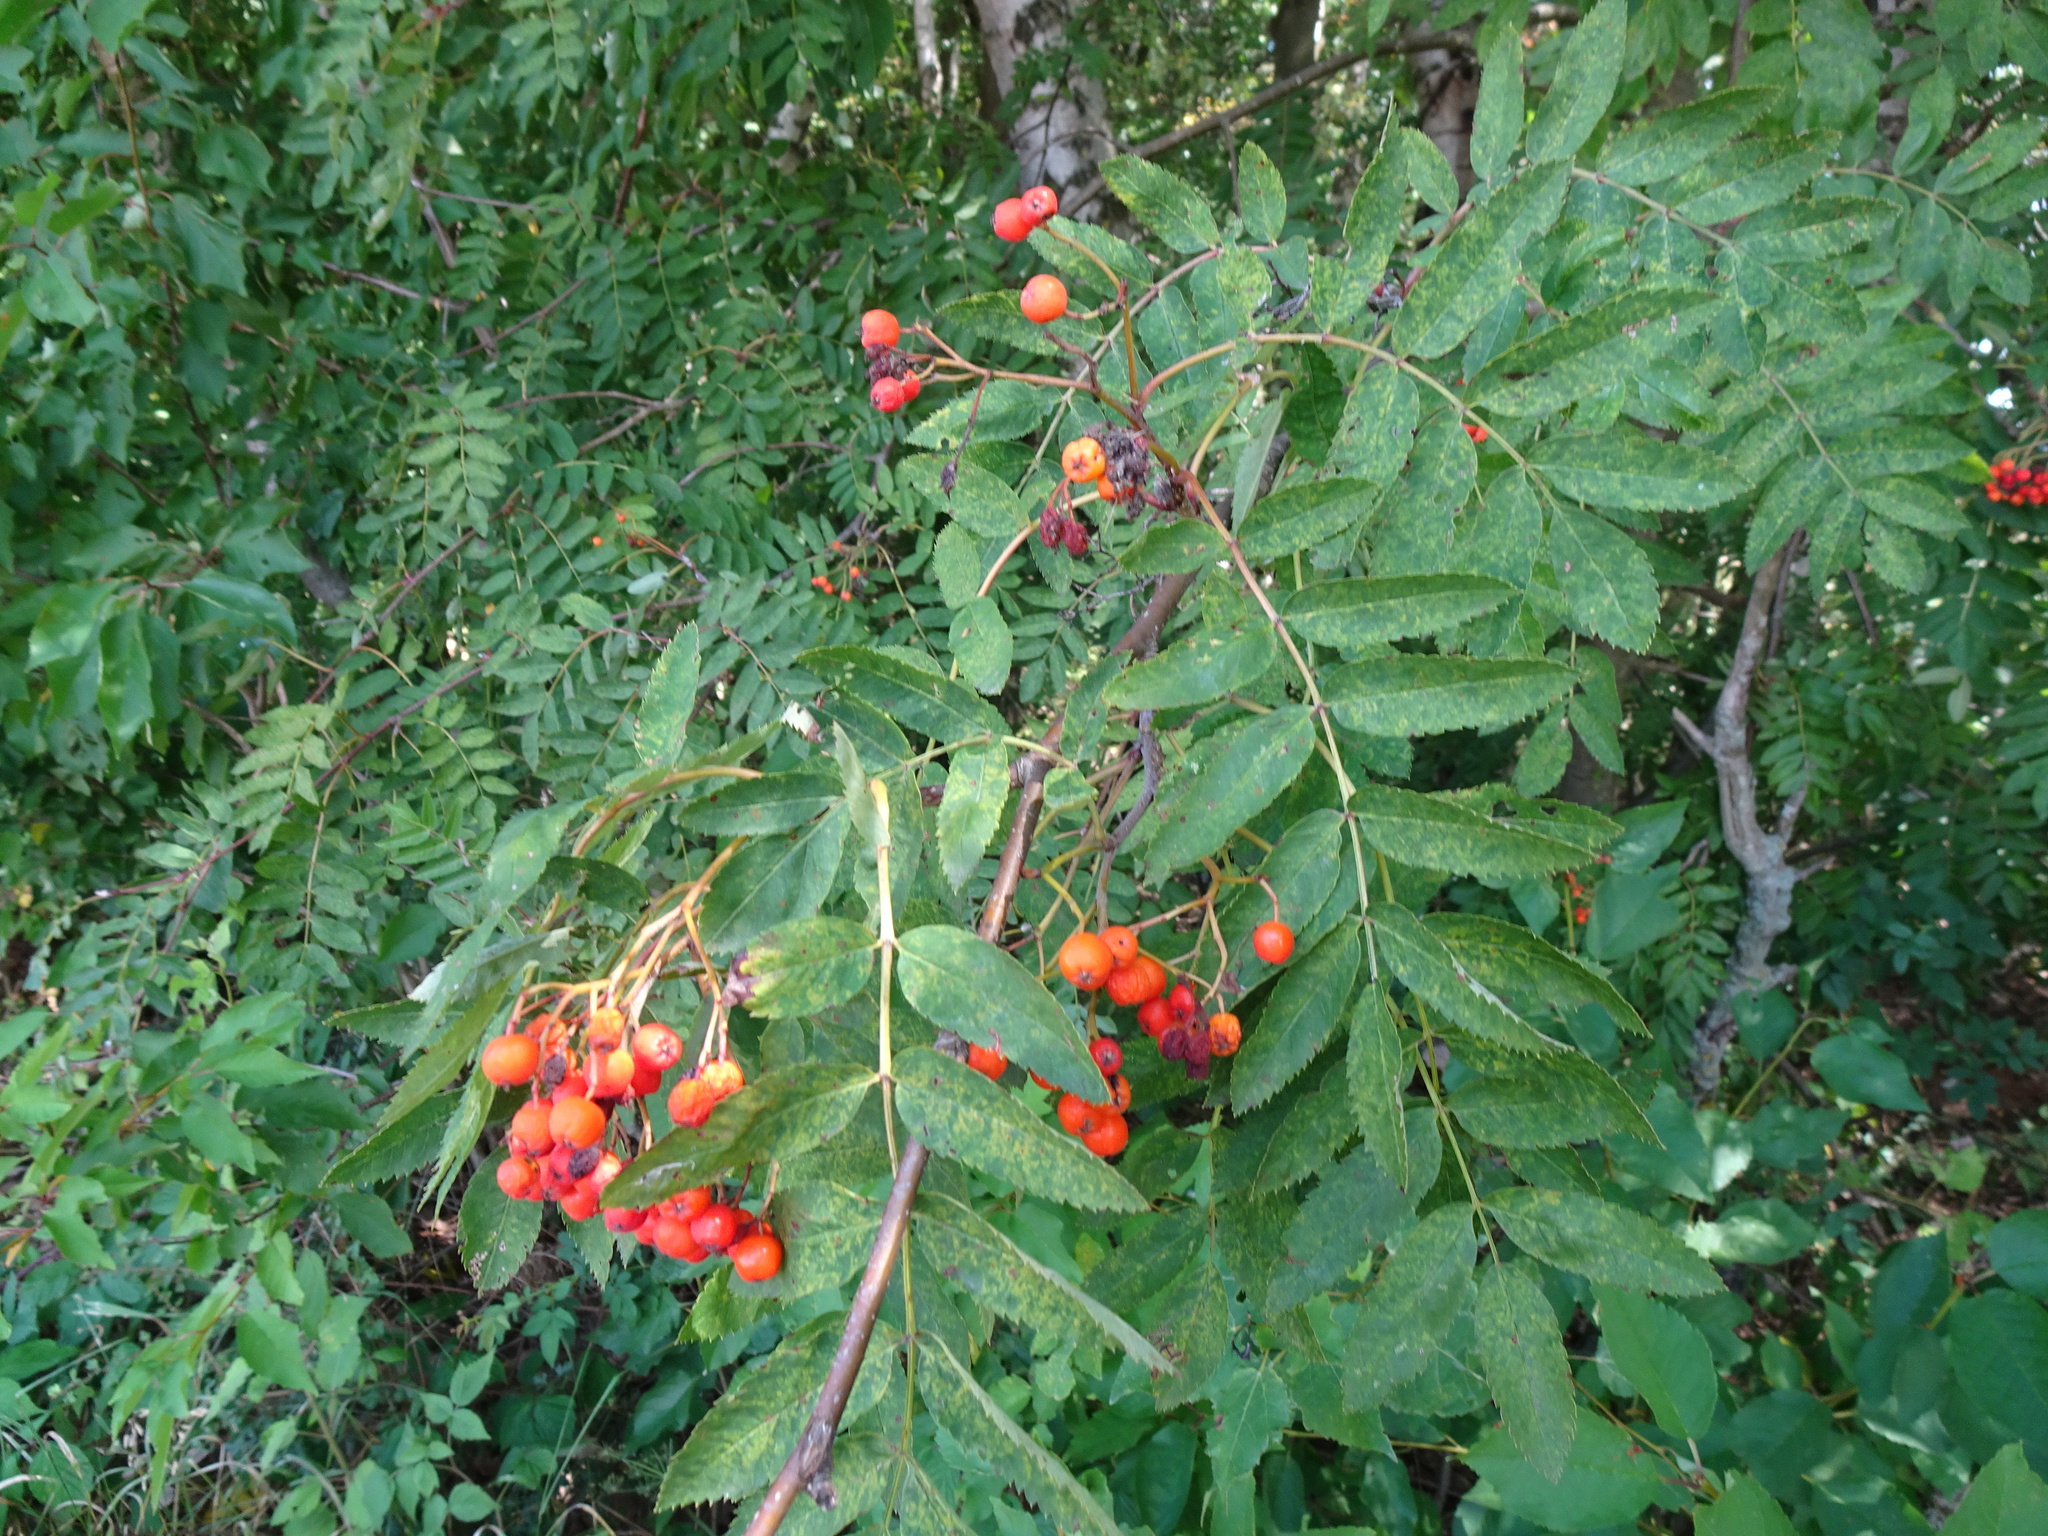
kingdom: Plantae
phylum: Tracheophyta
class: Magnoliopsida
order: Rosales
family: Rosaceae
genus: Sorbus
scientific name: Sorbus aucuparia
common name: Rowan
